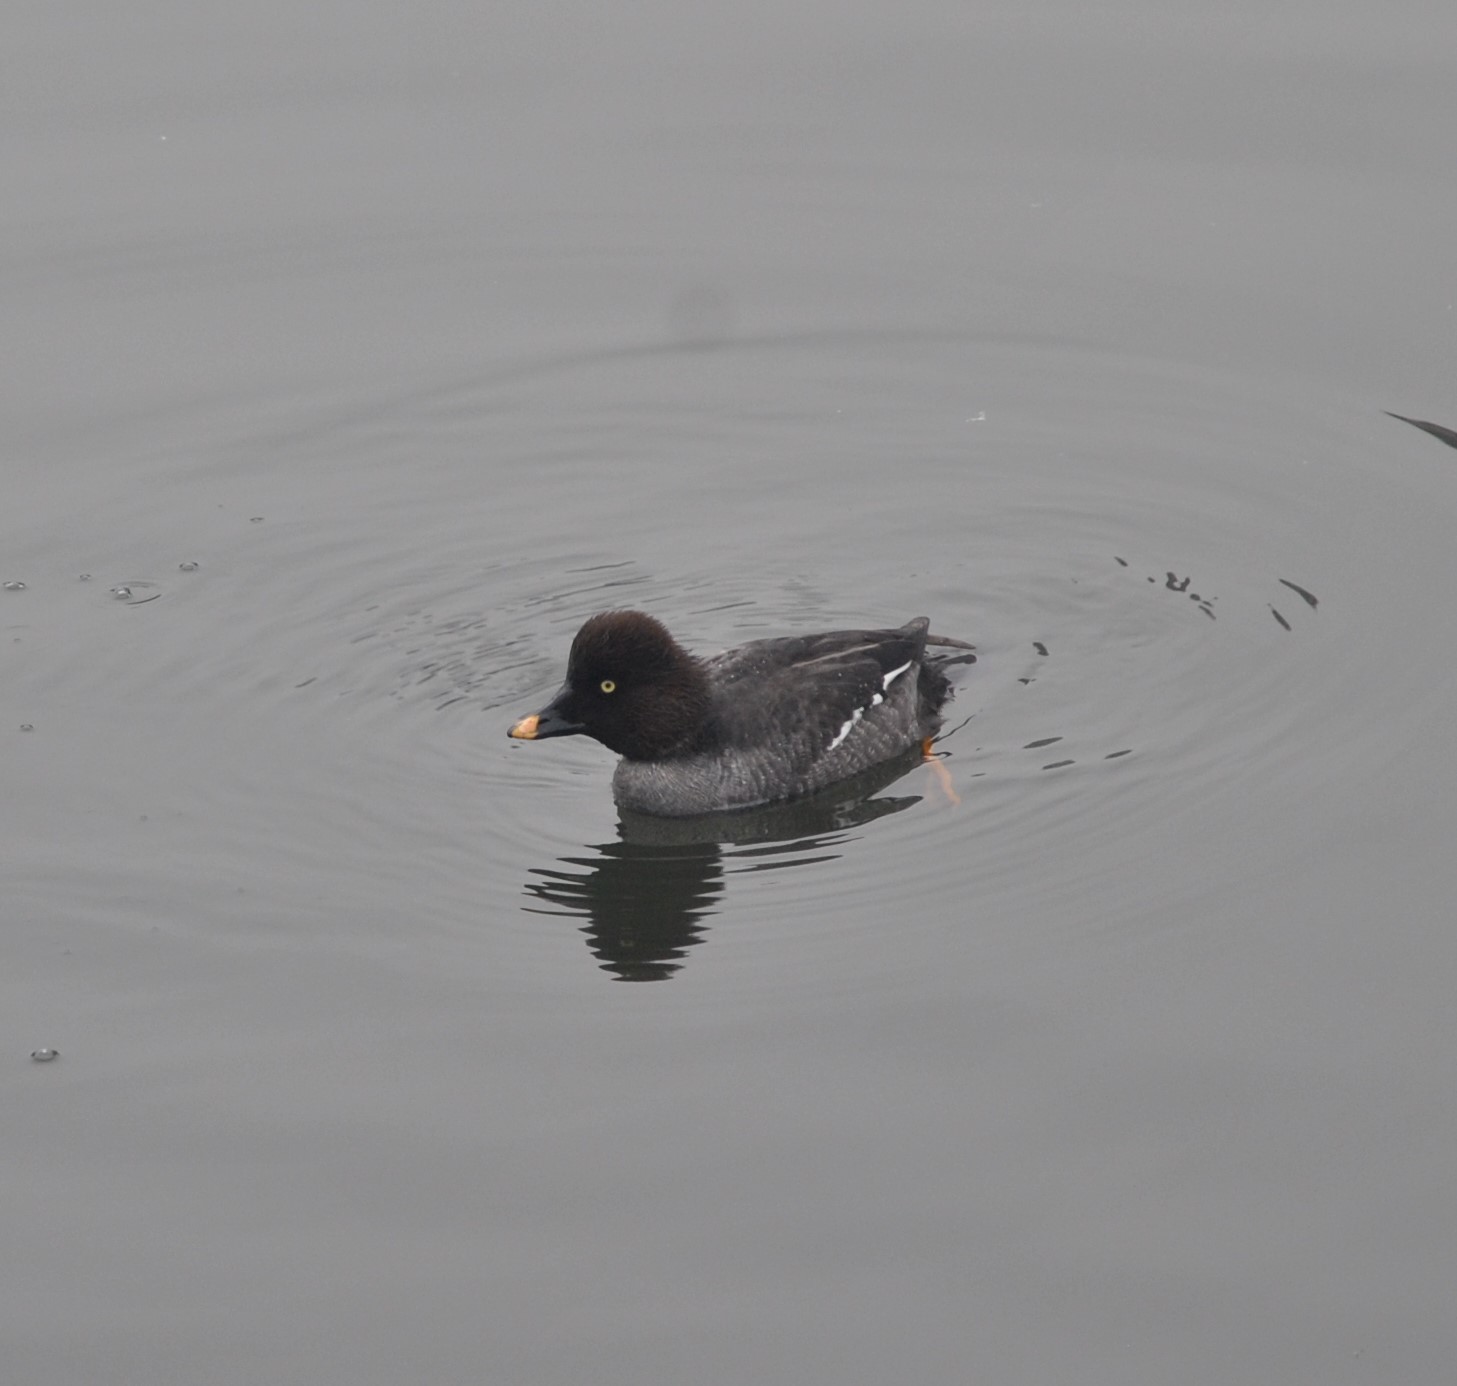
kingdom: Animalia
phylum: Chordata
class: Aves
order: Anseriformes
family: Anatidae
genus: Bucephala
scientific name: Bucephala clangula
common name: Common goldeneye
